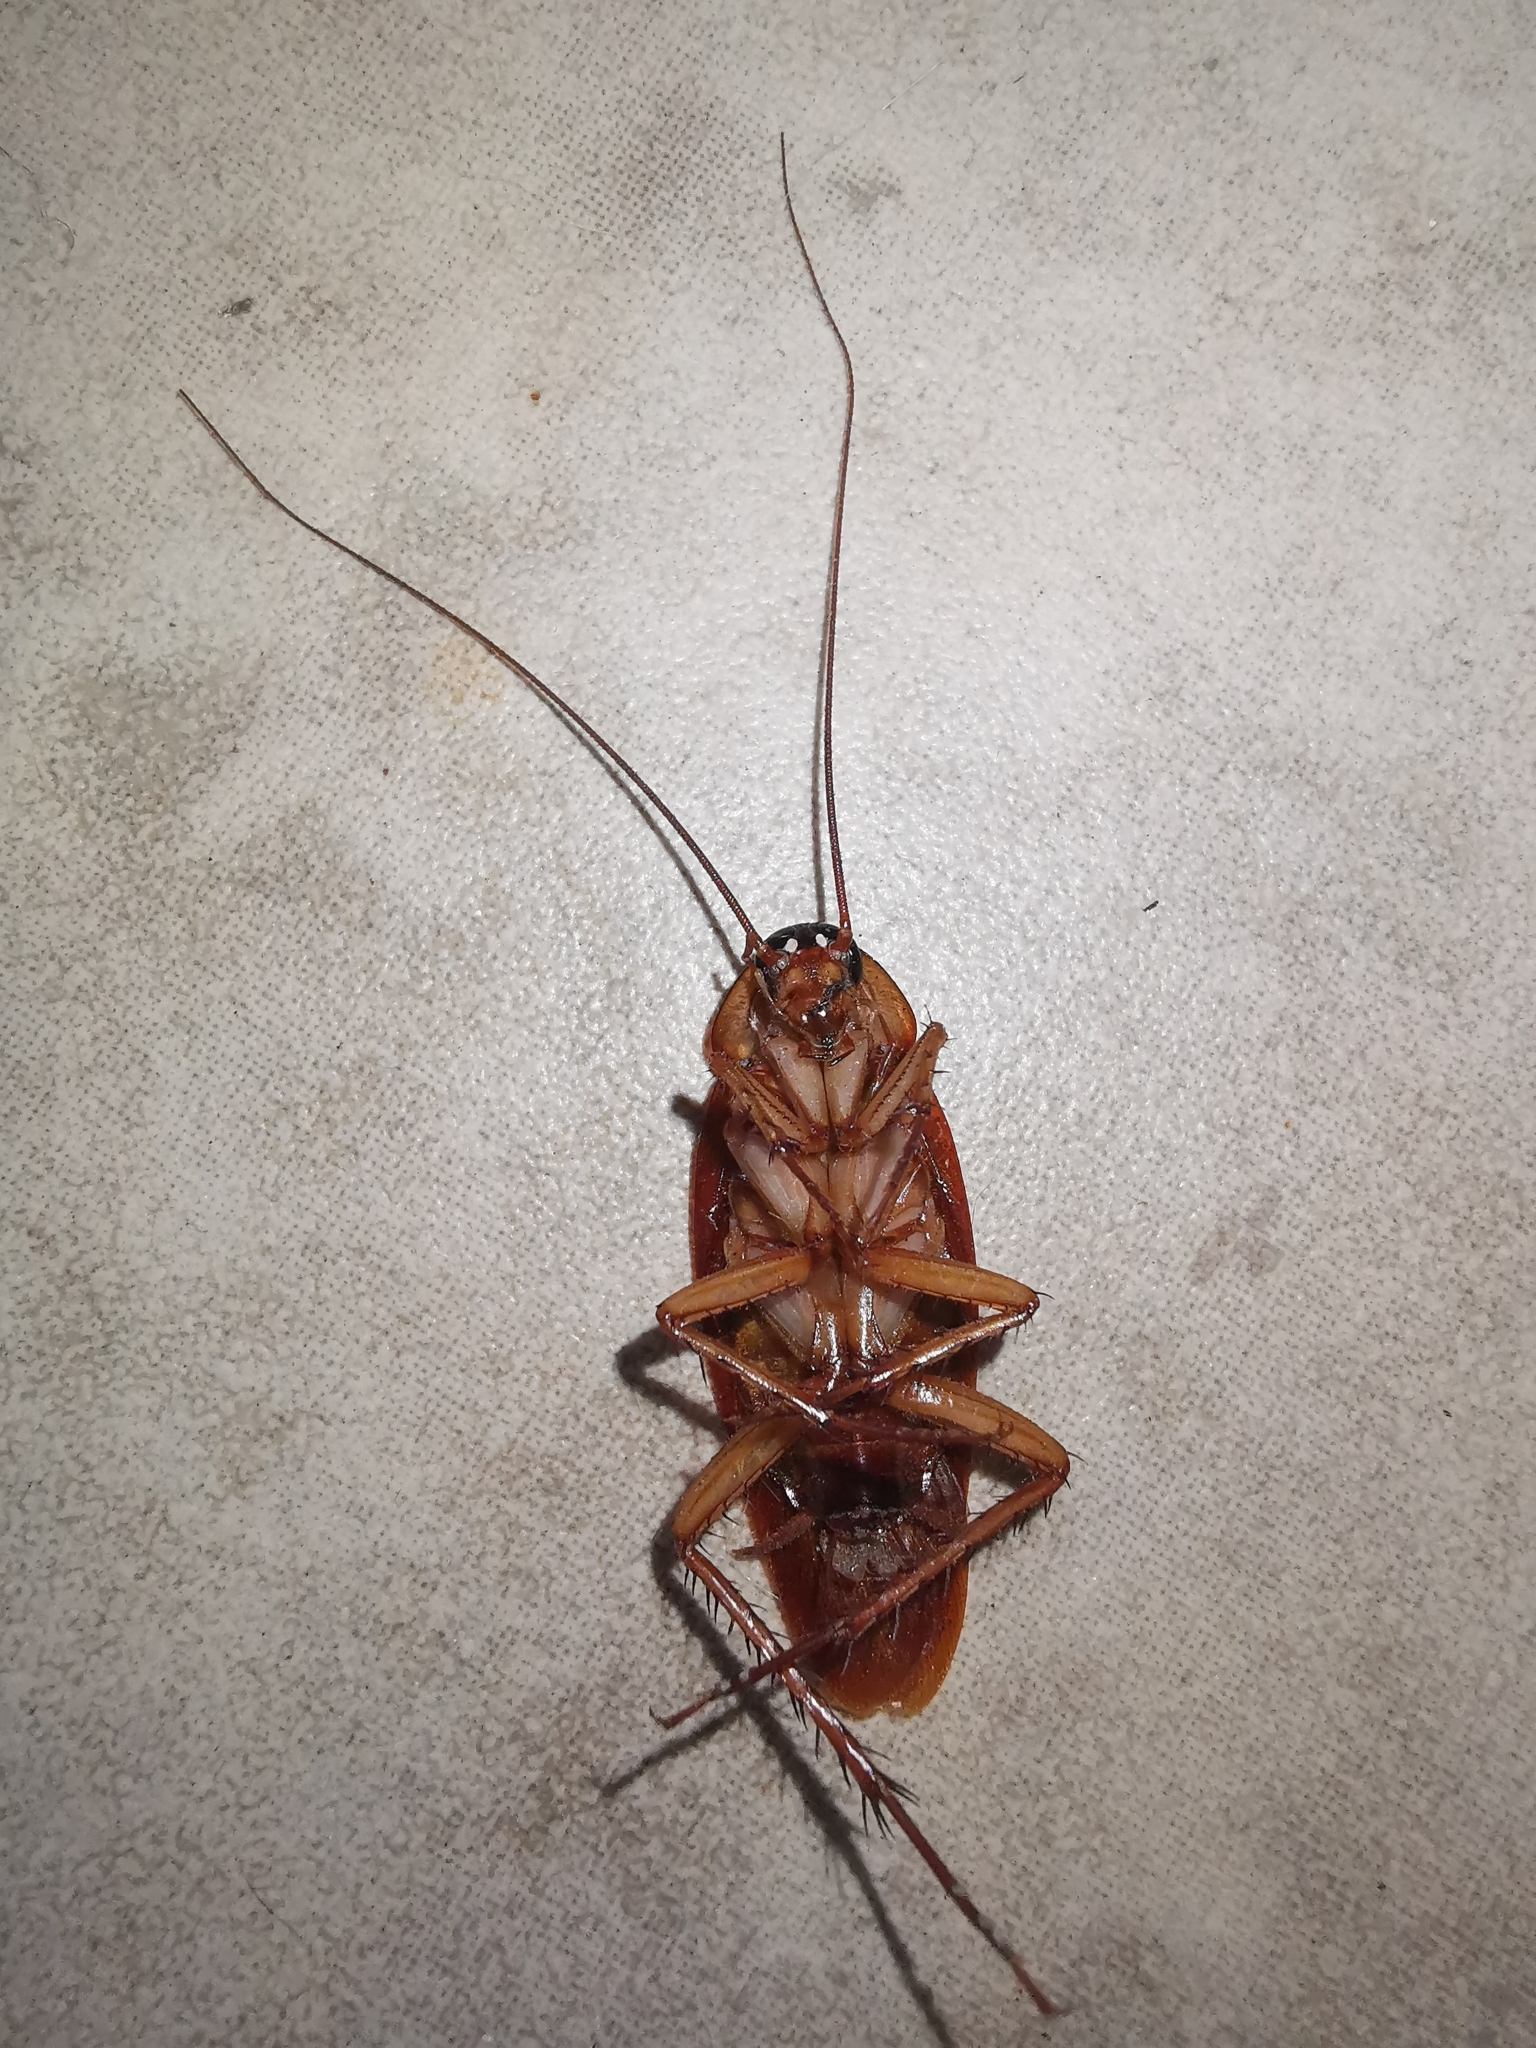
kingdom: Animalia
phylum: Arthropoda
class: Insecta
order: Blattodea
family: Blattidae
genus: Periplaneta
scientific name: Periplaneta americana
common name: American cockroach
